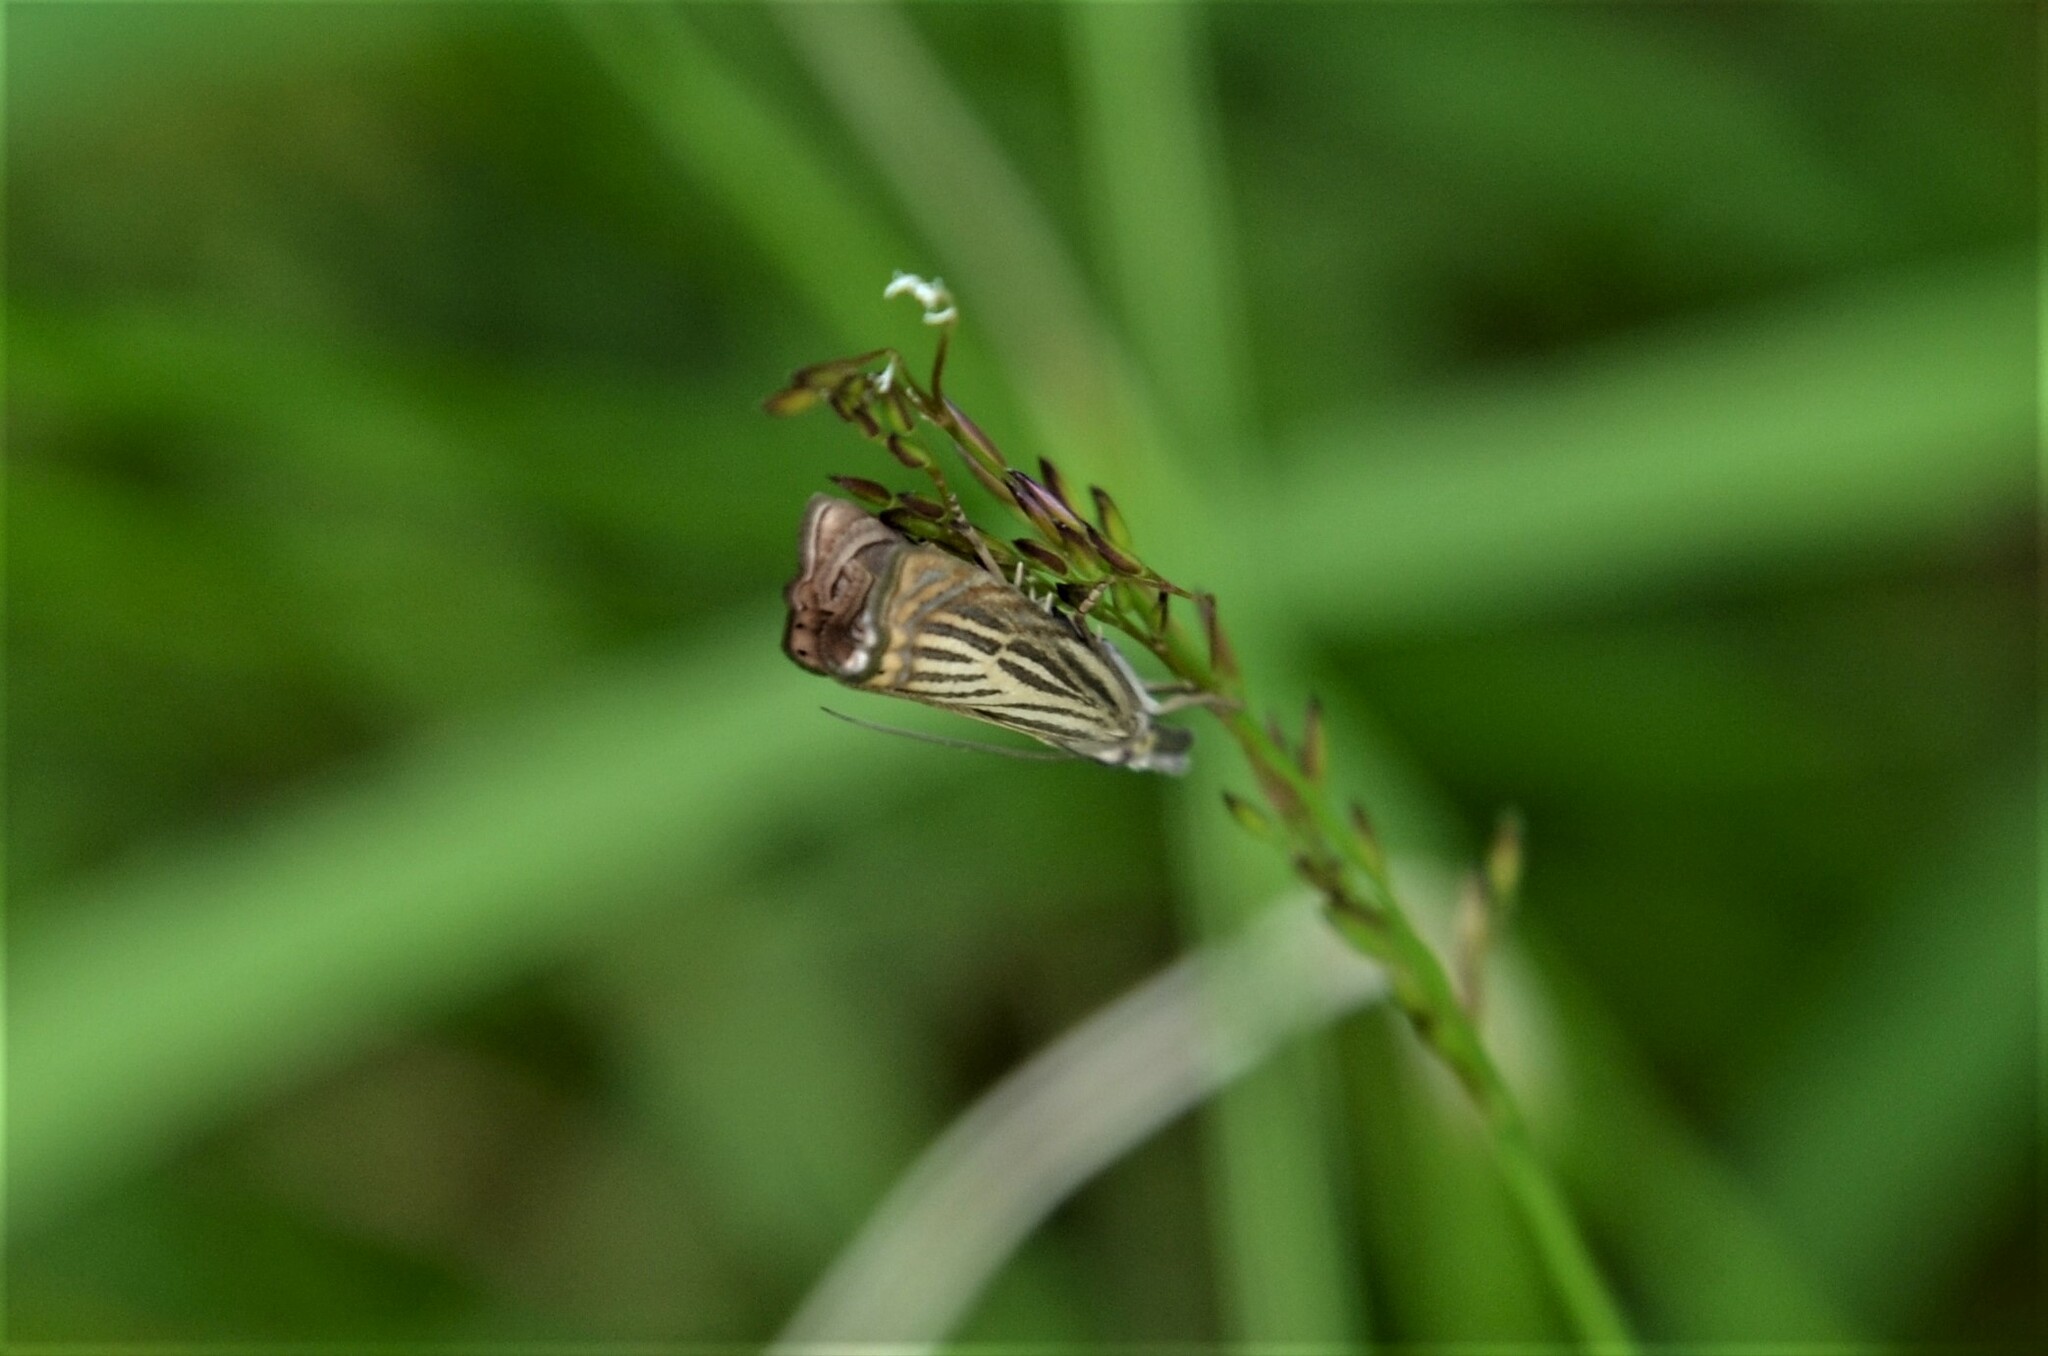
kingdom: Animalia
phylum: Arthropoda
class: Insecta
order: Lepidoptera
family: Crambidae
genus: Chrysoteuchia
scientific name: Chrysoteuchia culmella
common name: Garden grass-veneer
